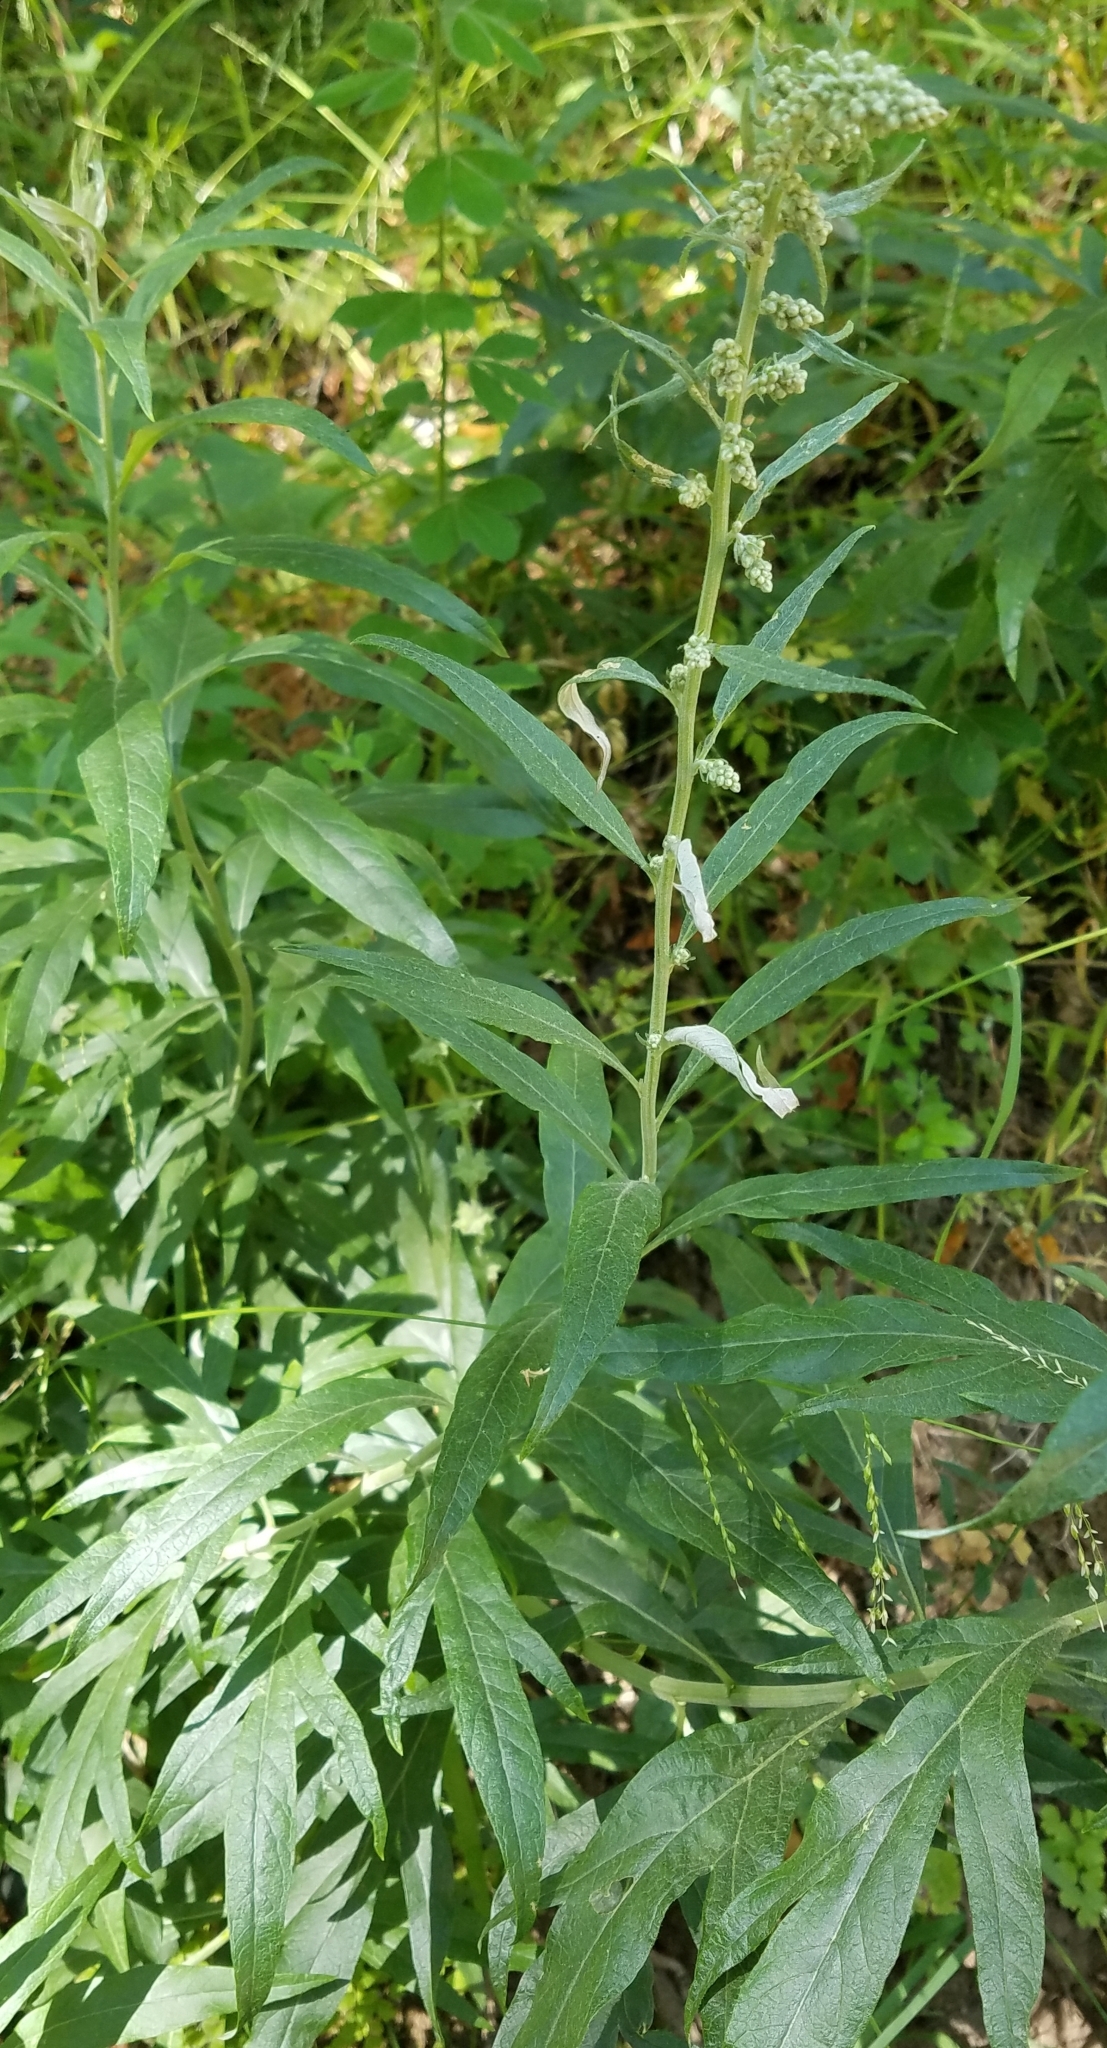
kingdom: Plantae
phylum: Tracheophyta
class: Magnoliopsida
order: Asterales
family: Asteraceae
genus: Artemisia
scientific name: Artemisia douglasiana
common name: Northwest mugwort
